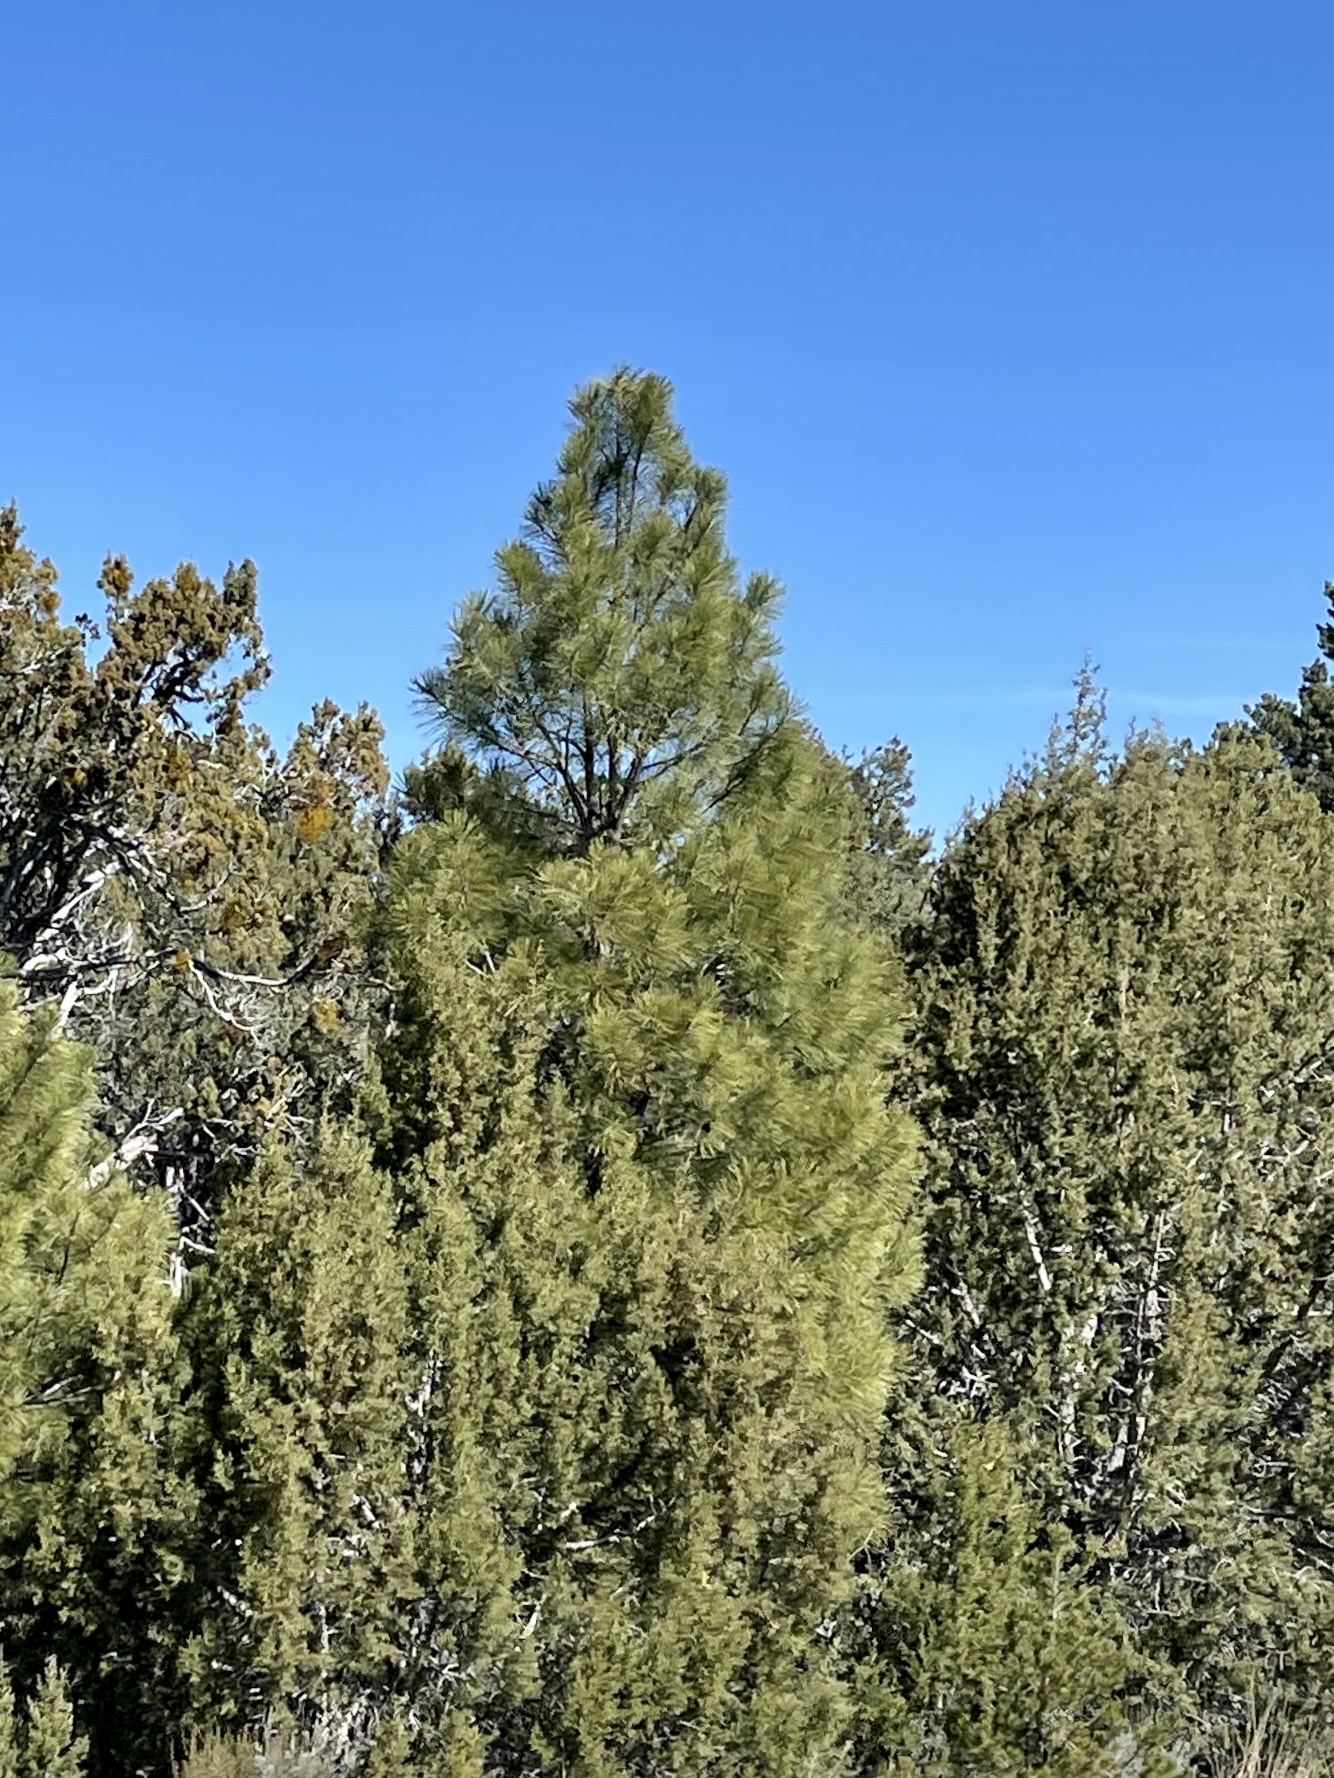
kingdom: Plantae
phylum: Tracheophyta
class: Pinopsida
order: Pinales
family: Pinaceae
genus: Pinus
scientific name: Pinus ponderosa
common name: Western yellow-pine
